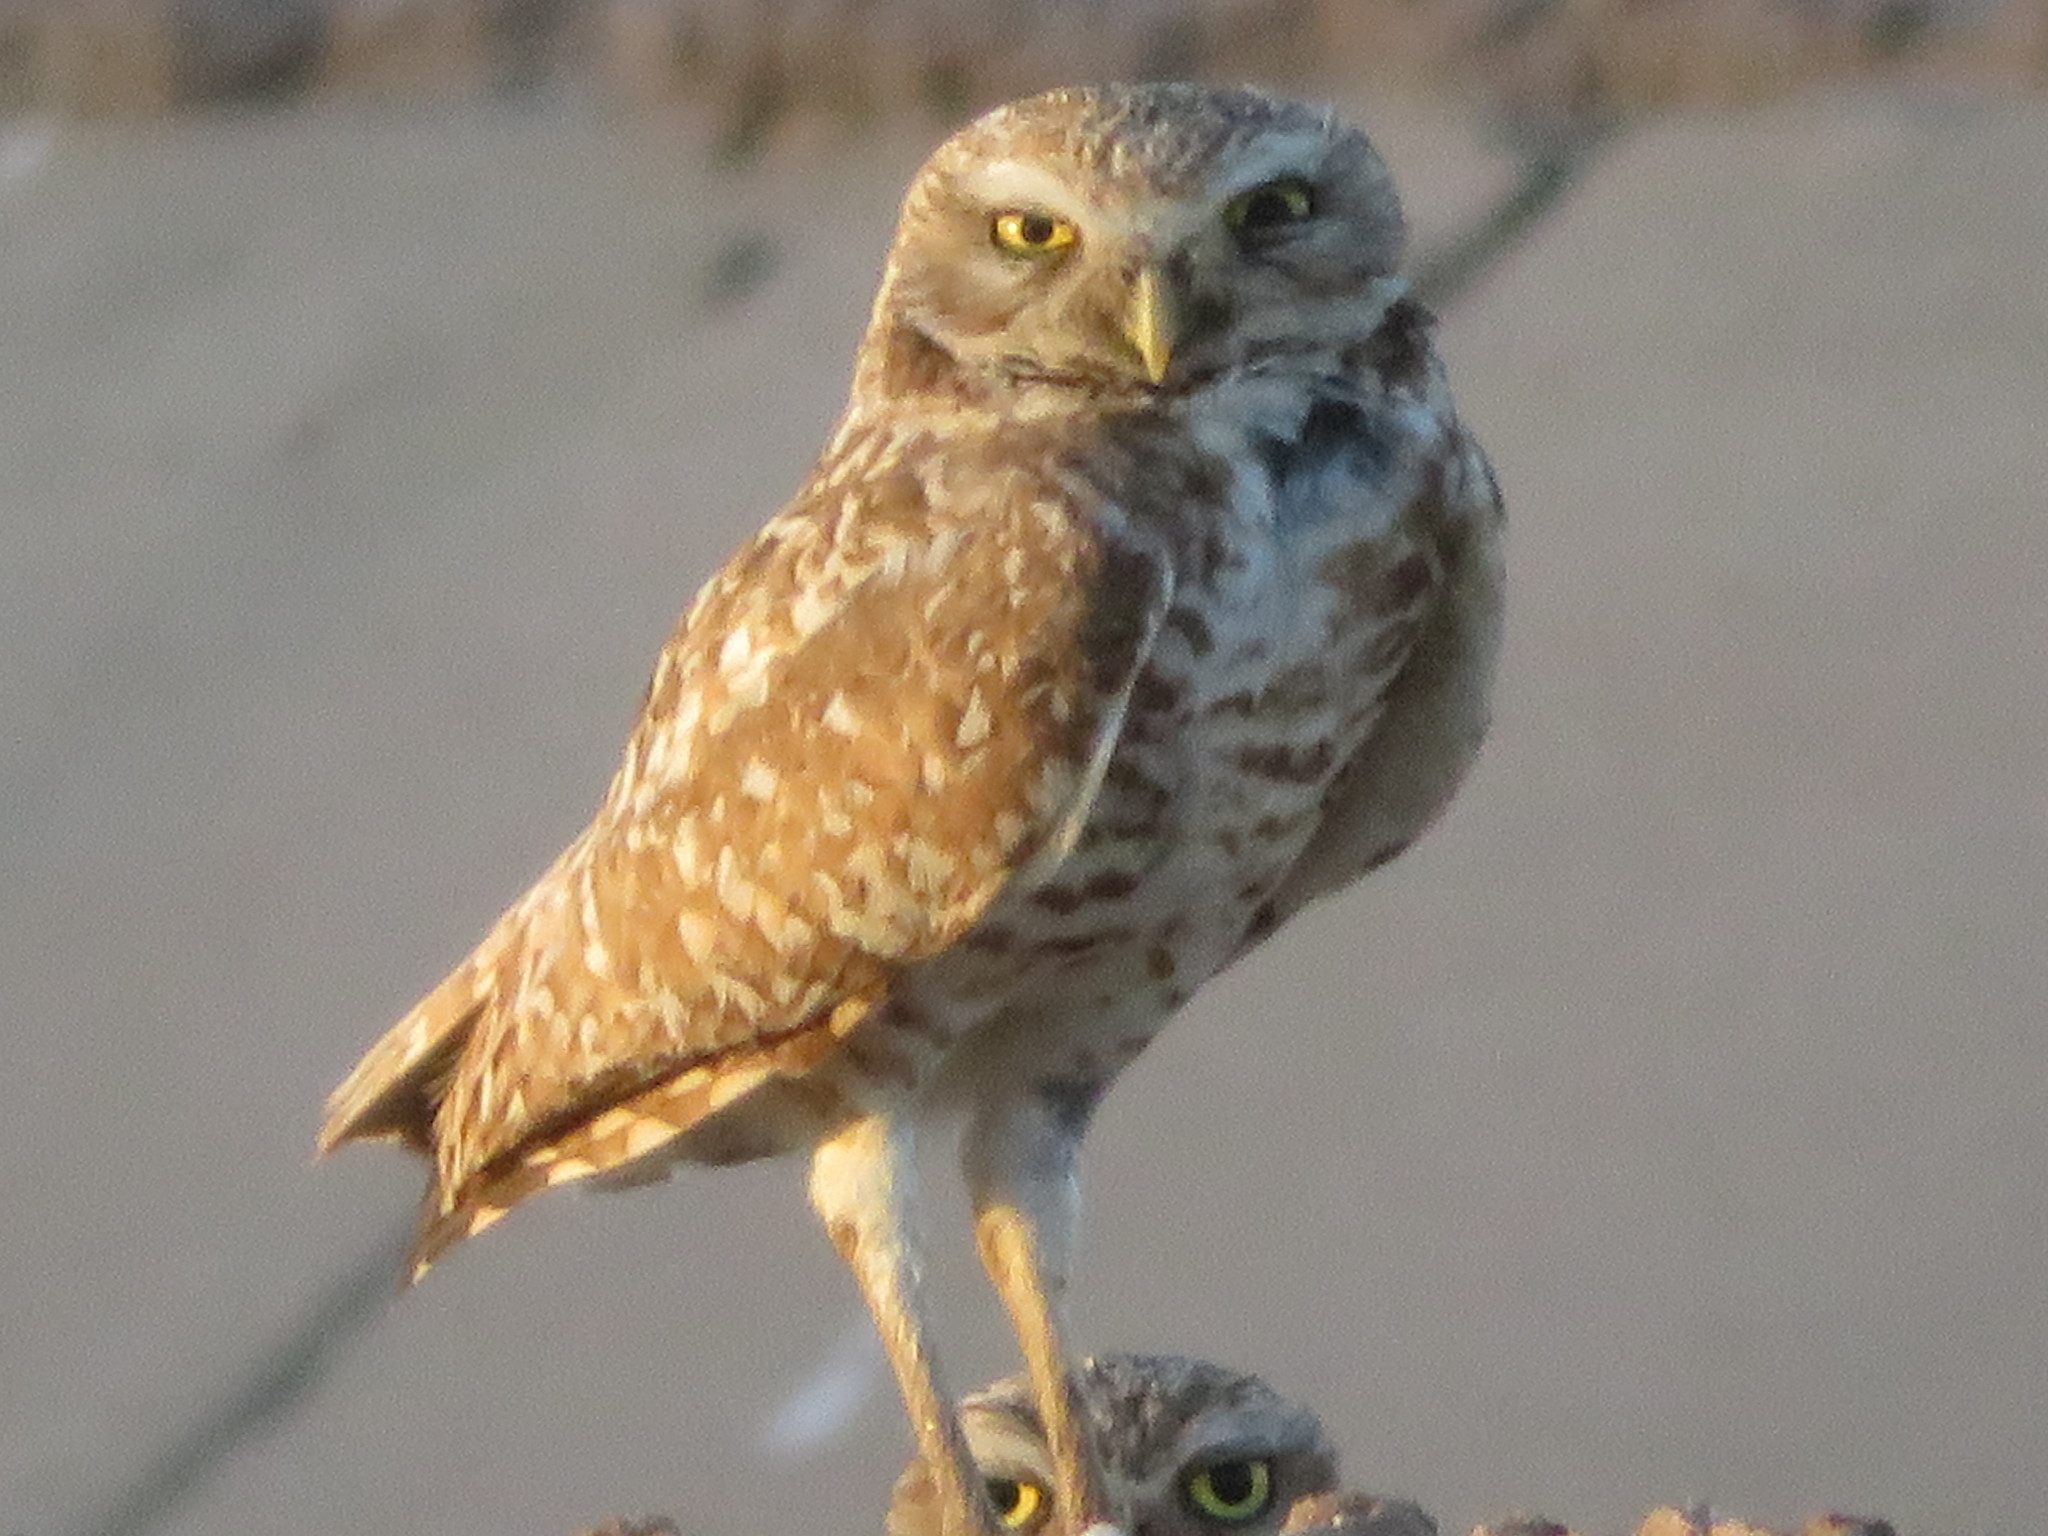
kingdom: Animalia
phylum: Chordata
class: Aves
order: Strigiformes
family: Strigidae
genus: Athene
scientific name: Athene cunicularia
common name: Burrowing owl
